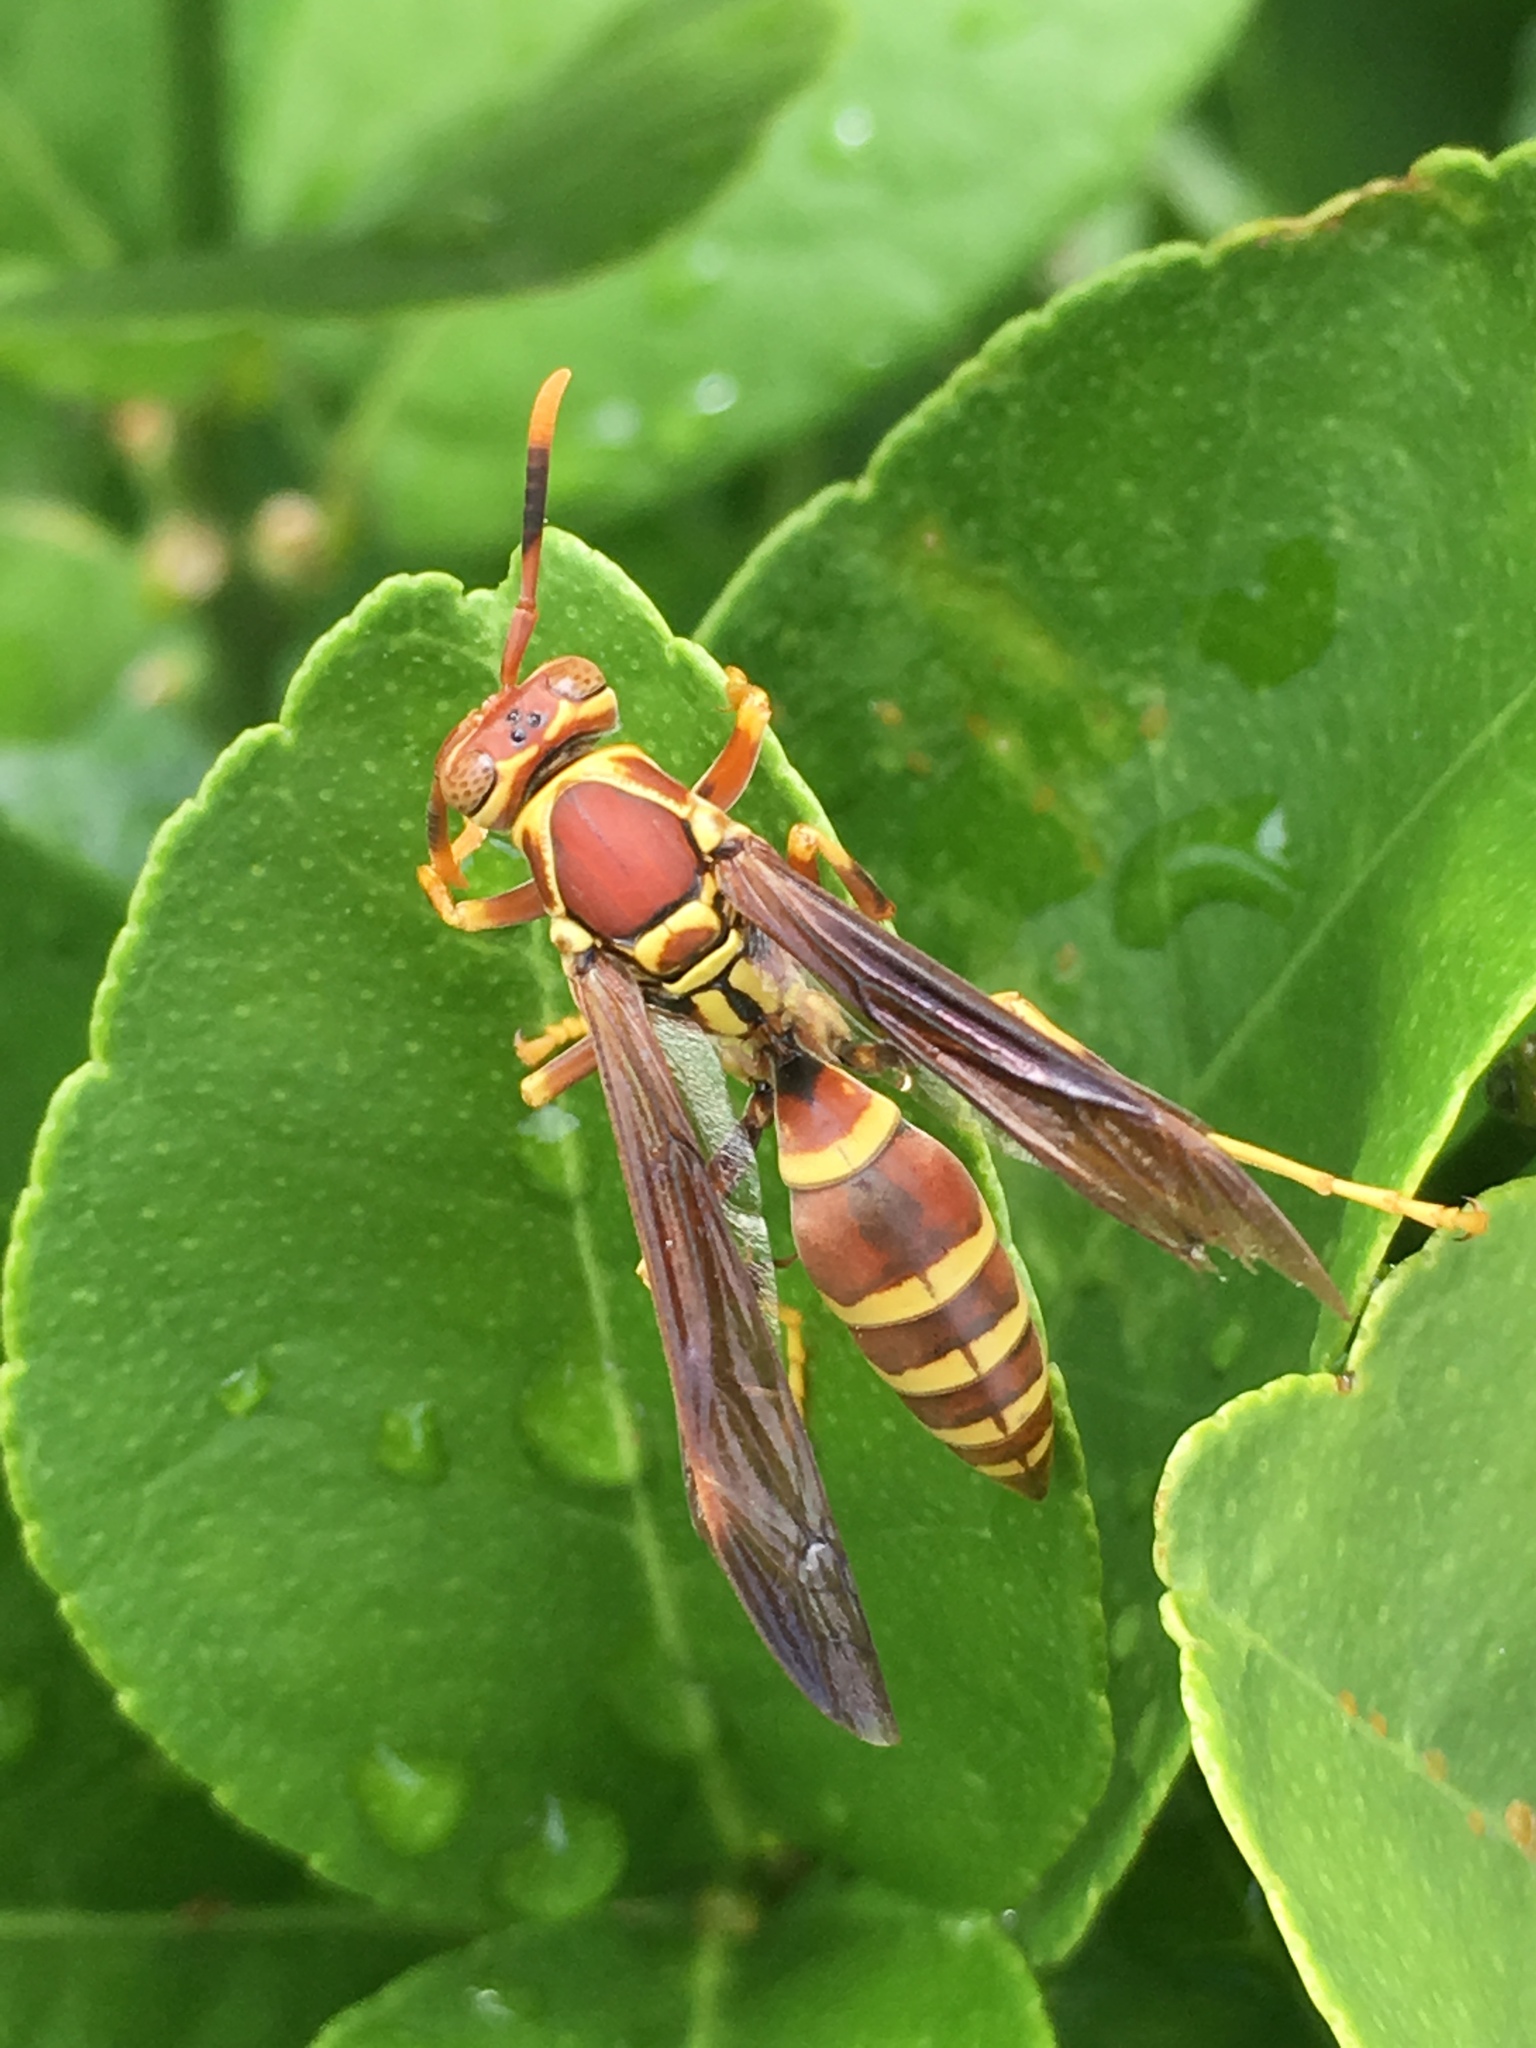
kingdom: Animalia
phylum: Arthropoda
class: Insecta
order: Hymenoptera
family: Eumenidae
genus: Polistes
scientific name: Polistes exclamans
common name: Paper wasp
